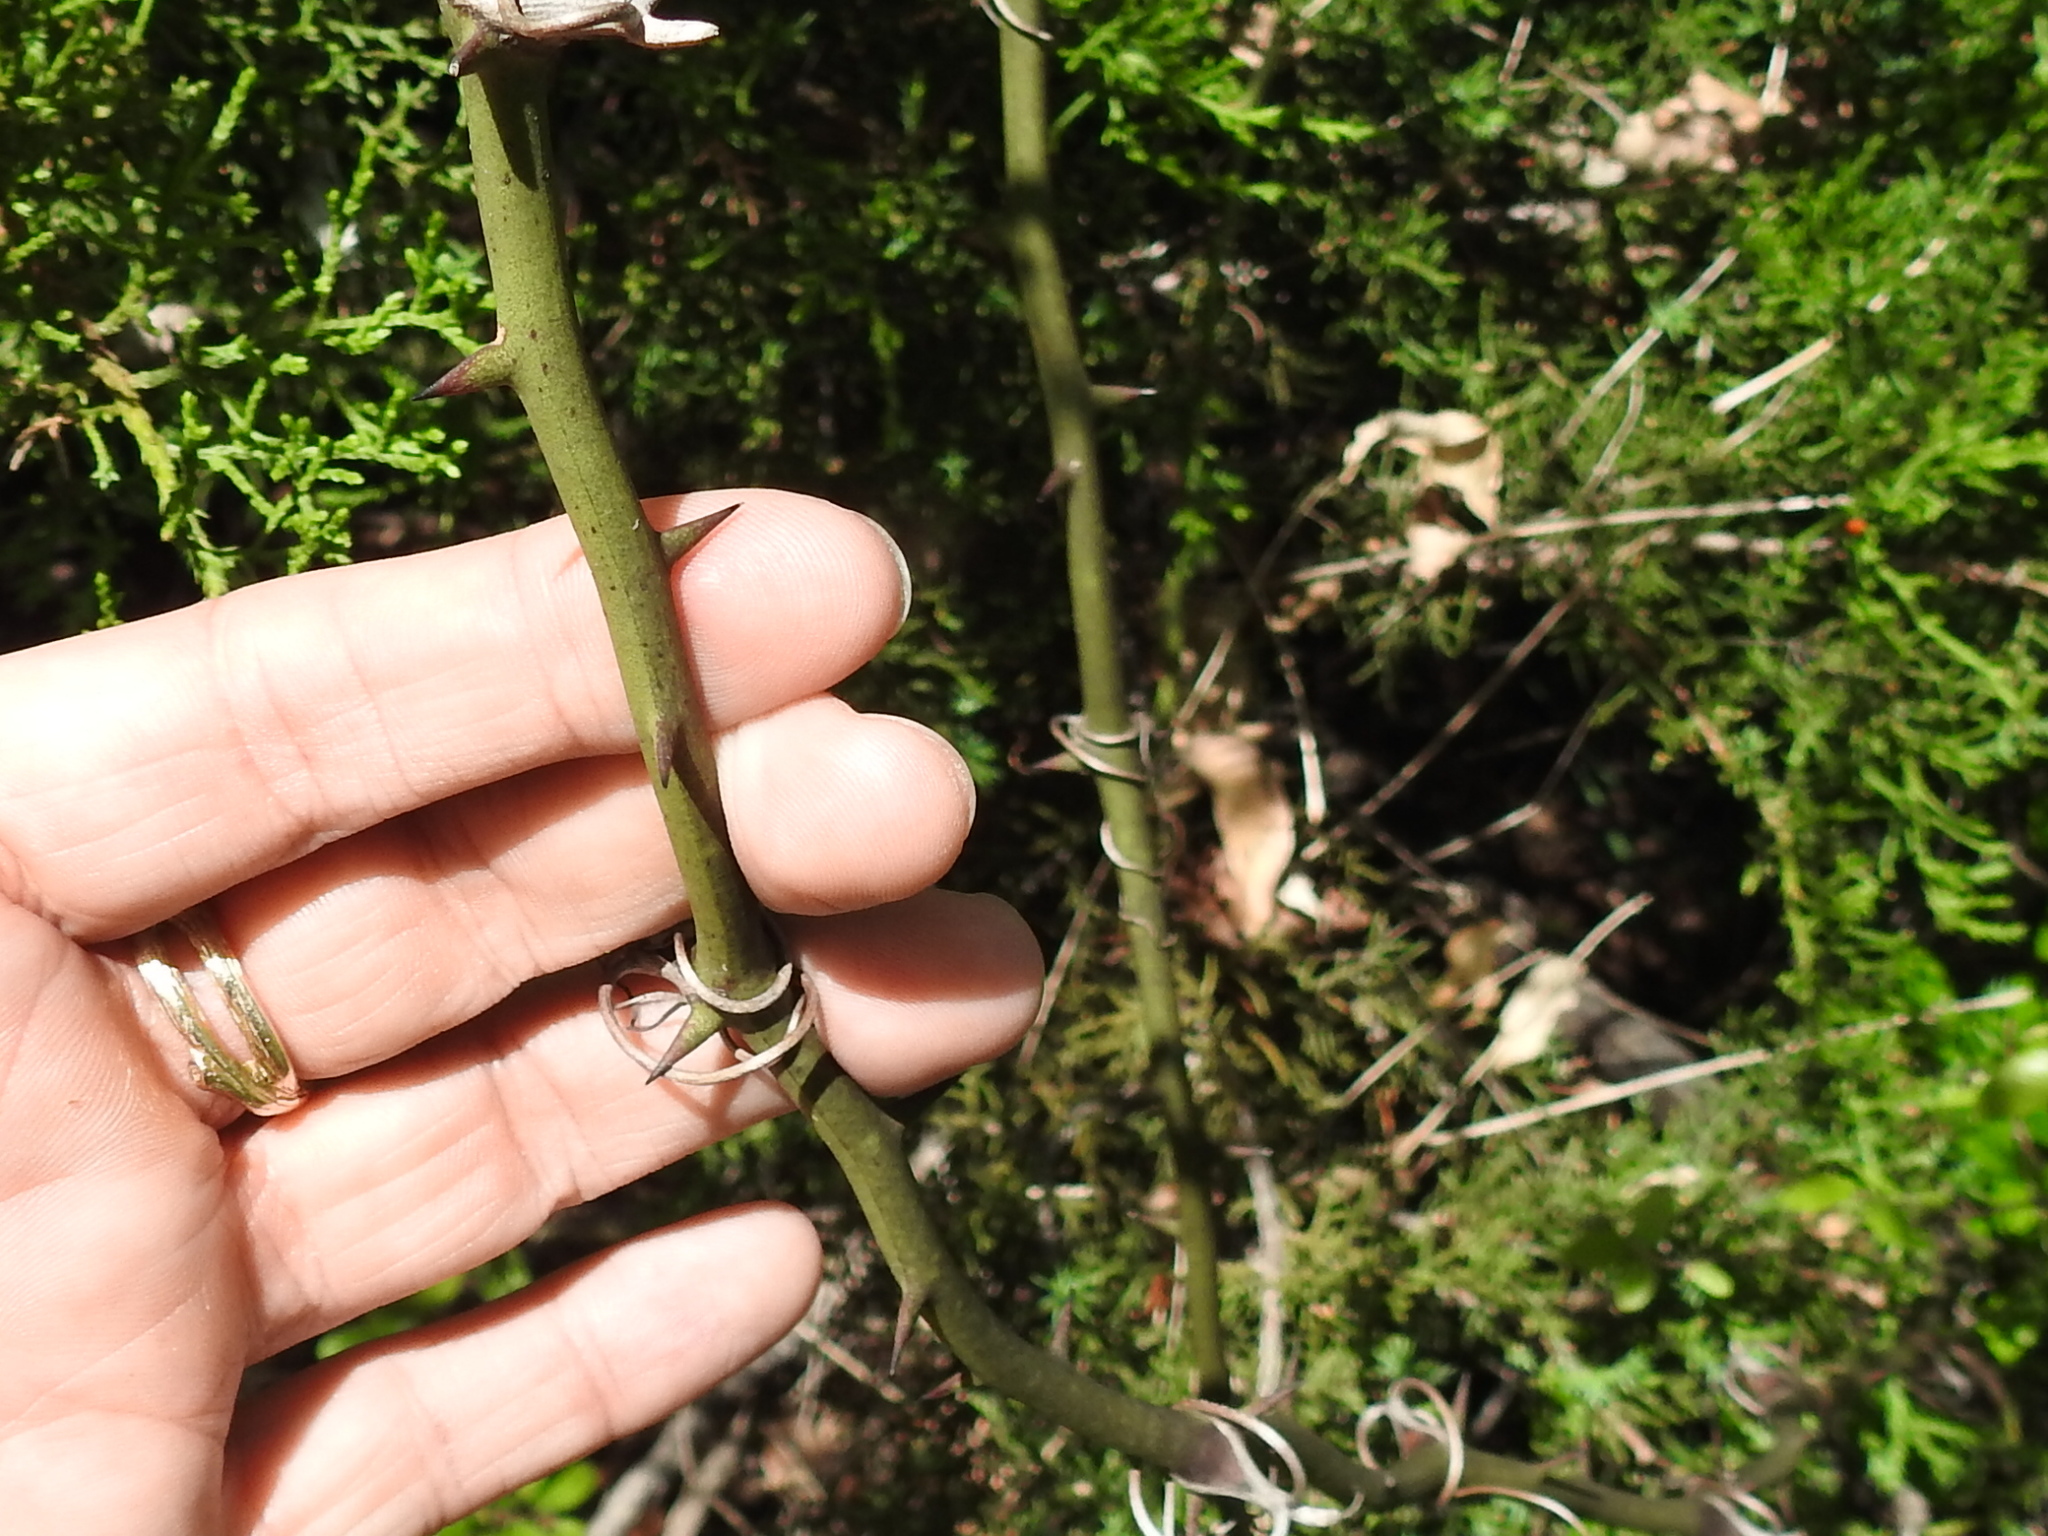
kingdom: Plantae
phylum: Tracheophyta
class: Liliopsida
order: Liliales
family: Smilacaceae
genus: Smilax
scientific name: Smilax bona-nox
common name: Catbrier
